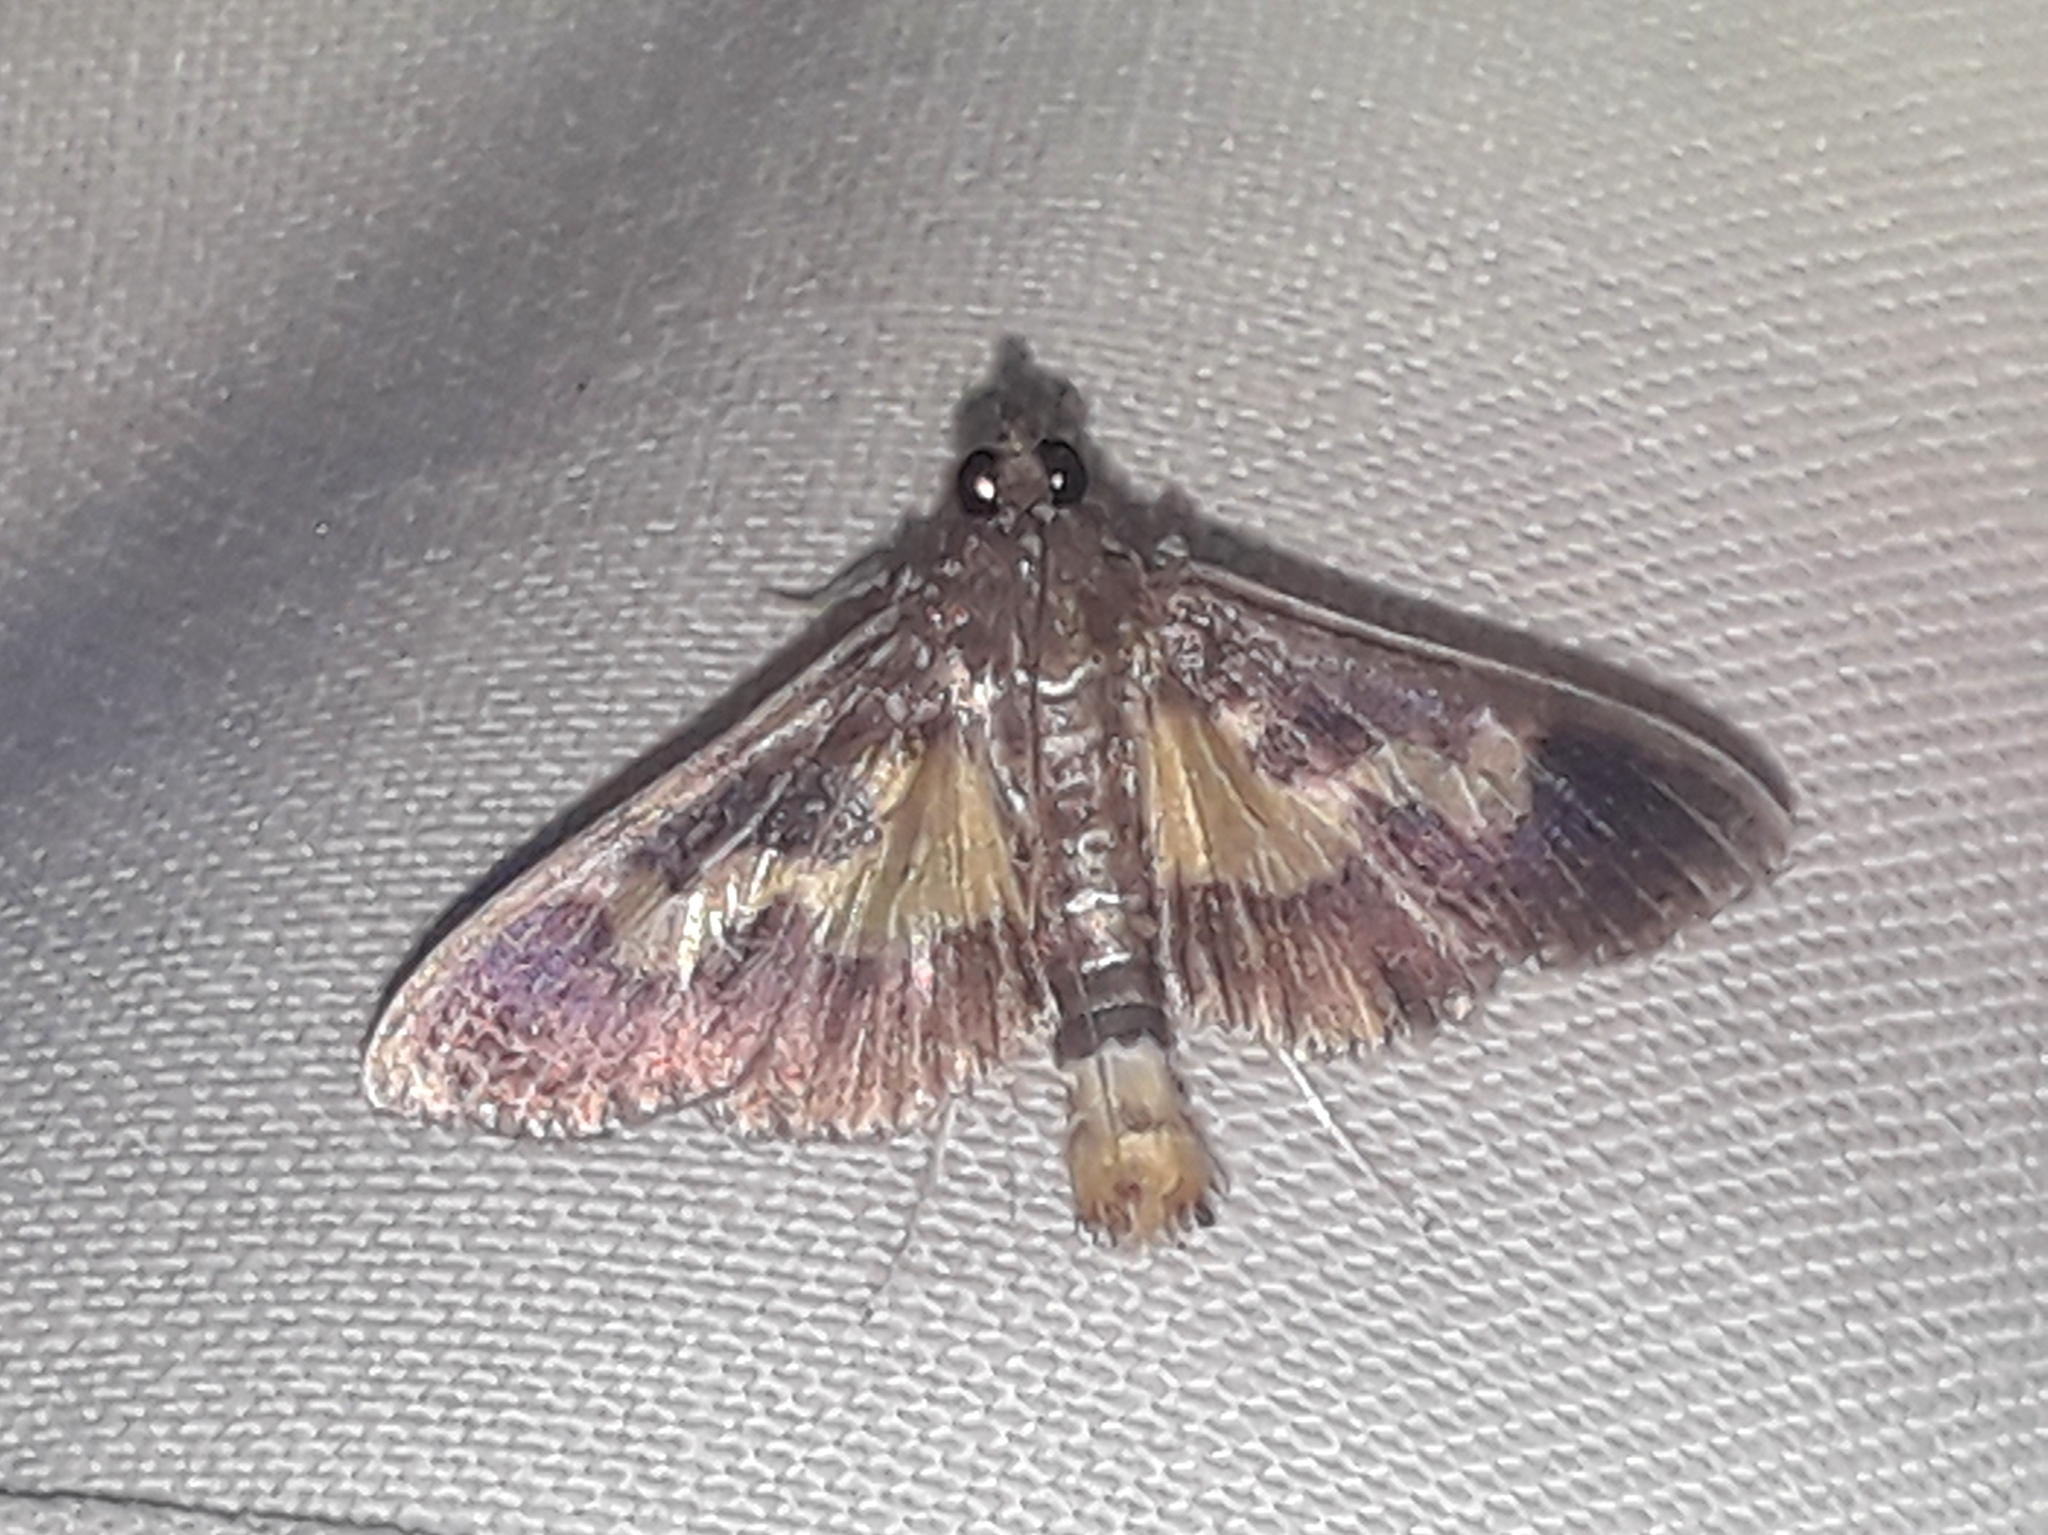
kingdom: Animalia
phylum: Arthropoda
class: Insecta
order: Lepidoptera
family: Crambidae
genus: Cryptographis
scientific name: Cryptographis nitidalis
